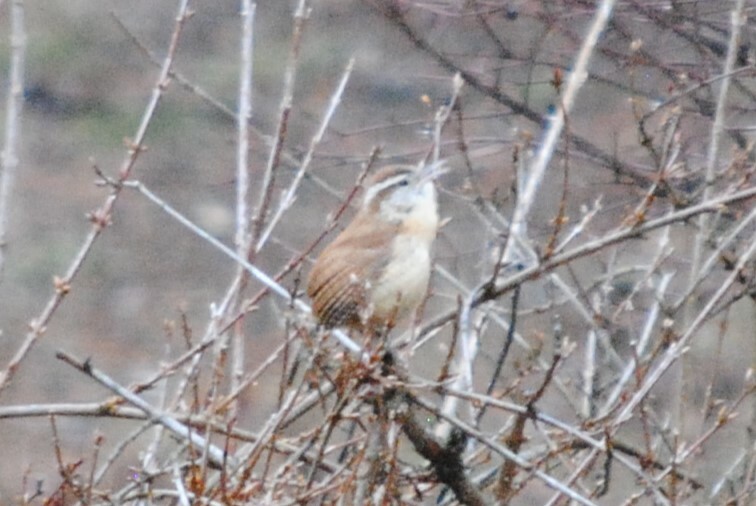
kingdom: Animalia
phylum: Chordata
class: Aves
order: Passeriformes
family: Troglodytidae
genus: Thryothorus
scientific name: Thryothorus ludovicianus
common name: Carolina wren
